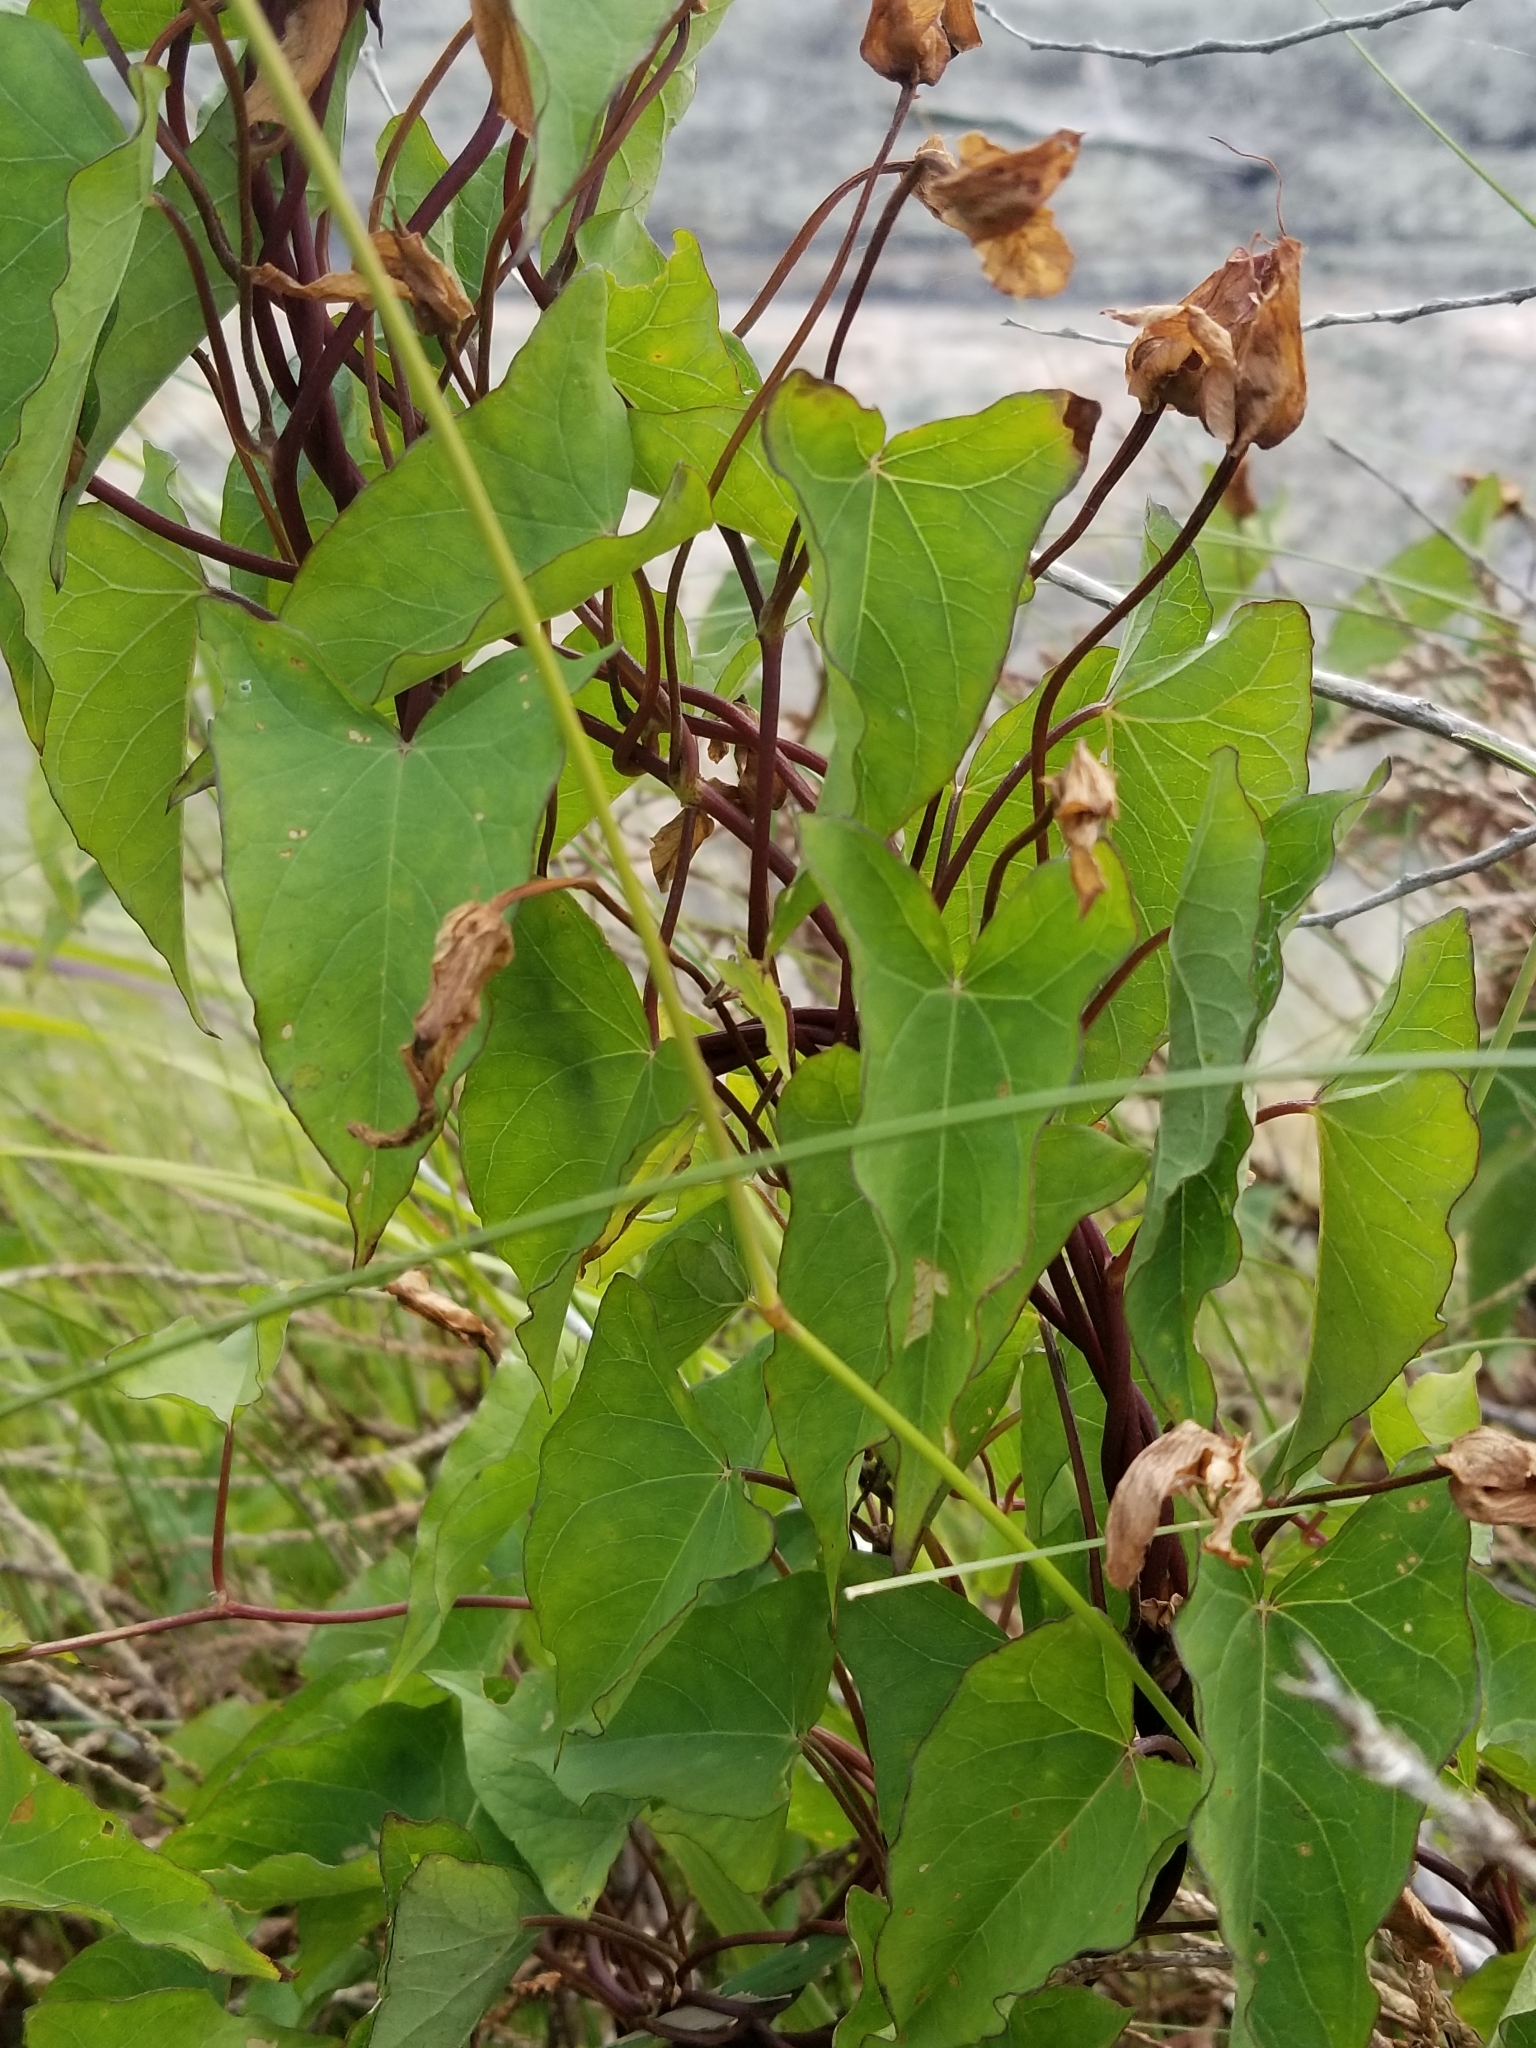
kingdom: Plantae
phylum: Tracheophyta
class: Magnoliopsida
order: Solanales
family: Convolvulaceae
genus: Calystegia
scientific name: Calystegia sepium
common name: Hedge bindweed
